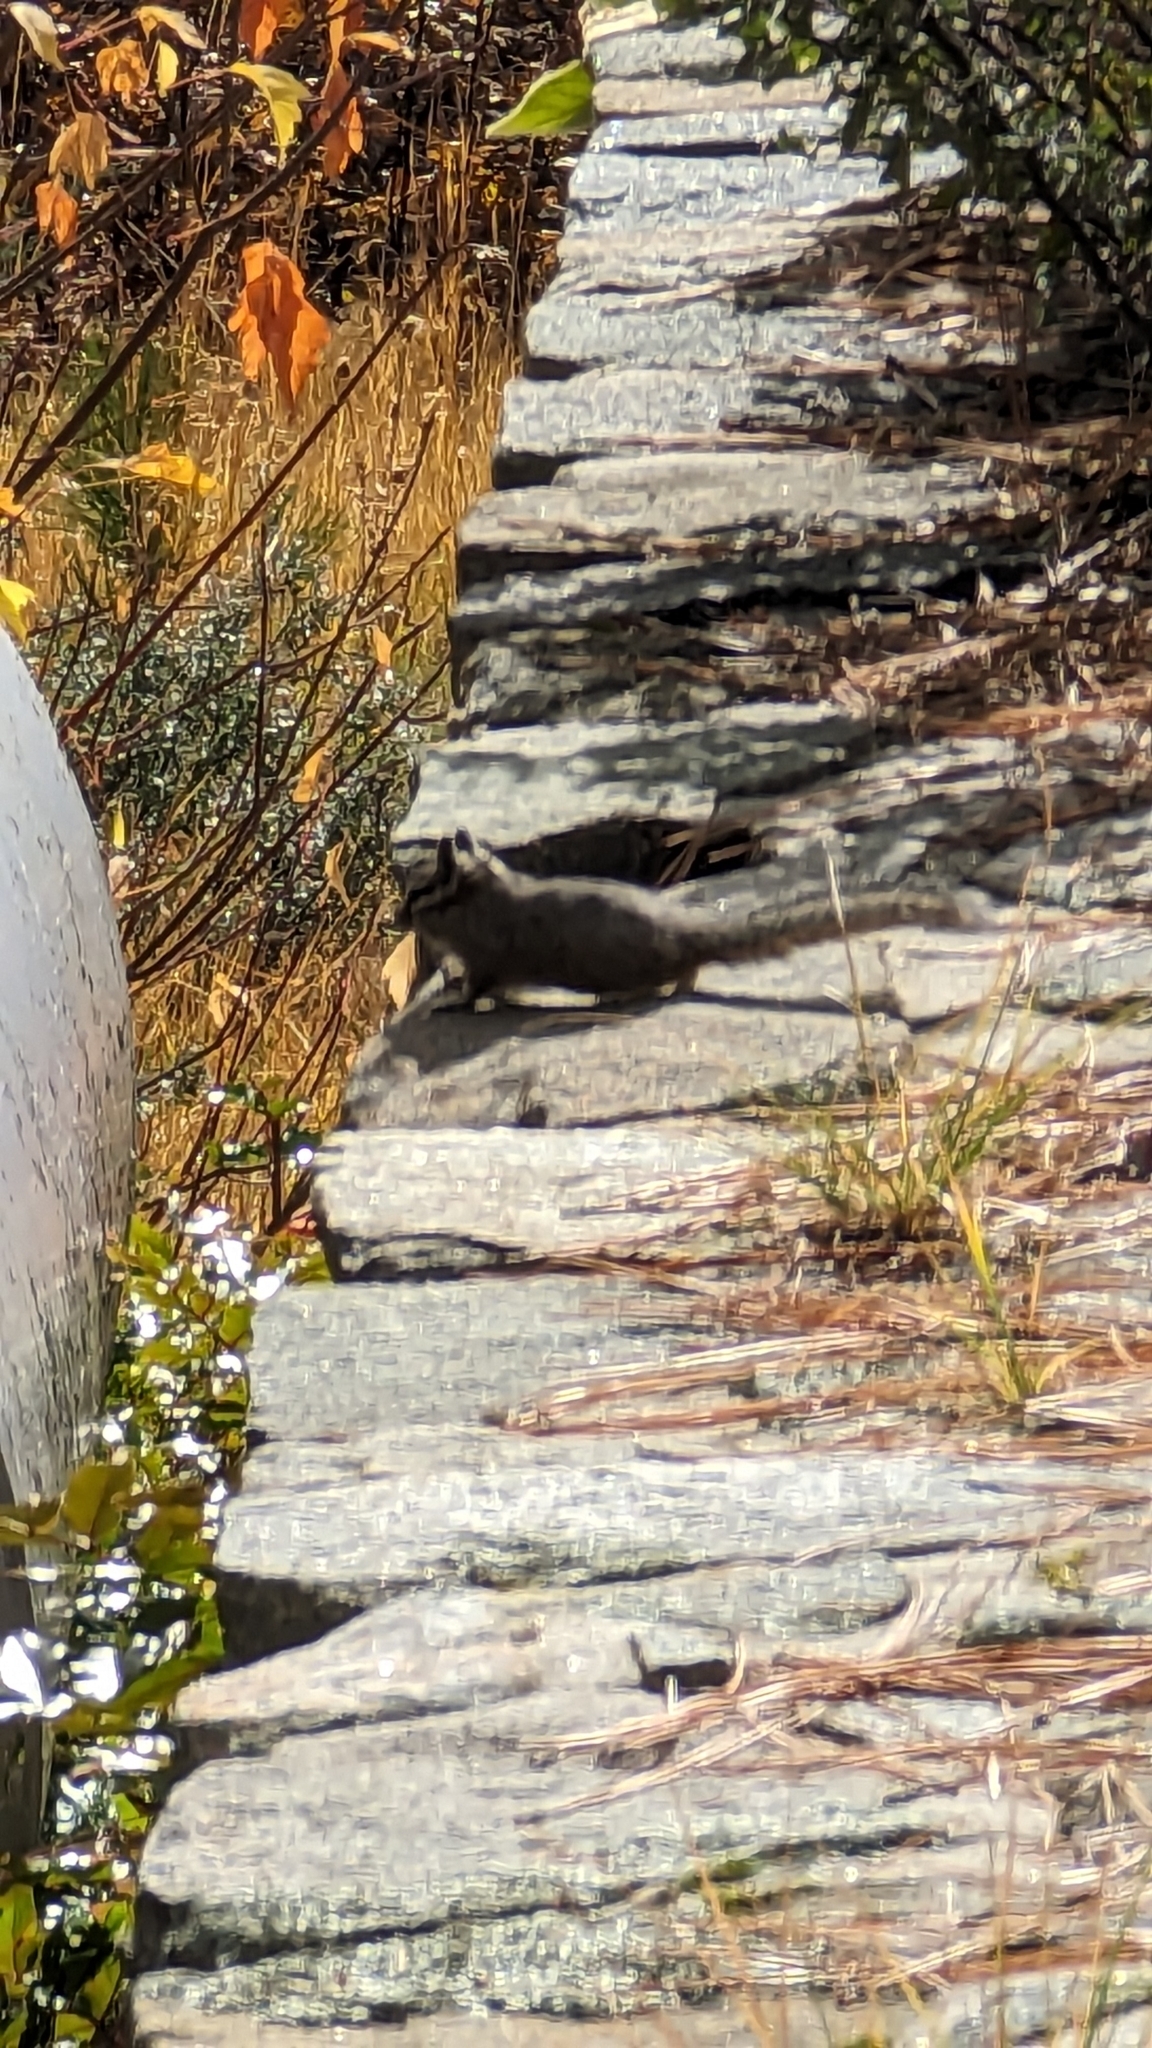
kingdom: Animalia
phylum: Chordata
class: Mammalia
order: Rodentia
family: Sciuridae
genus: Tamias
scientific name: Tamias dorsalis
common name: Cliff chipmunk
